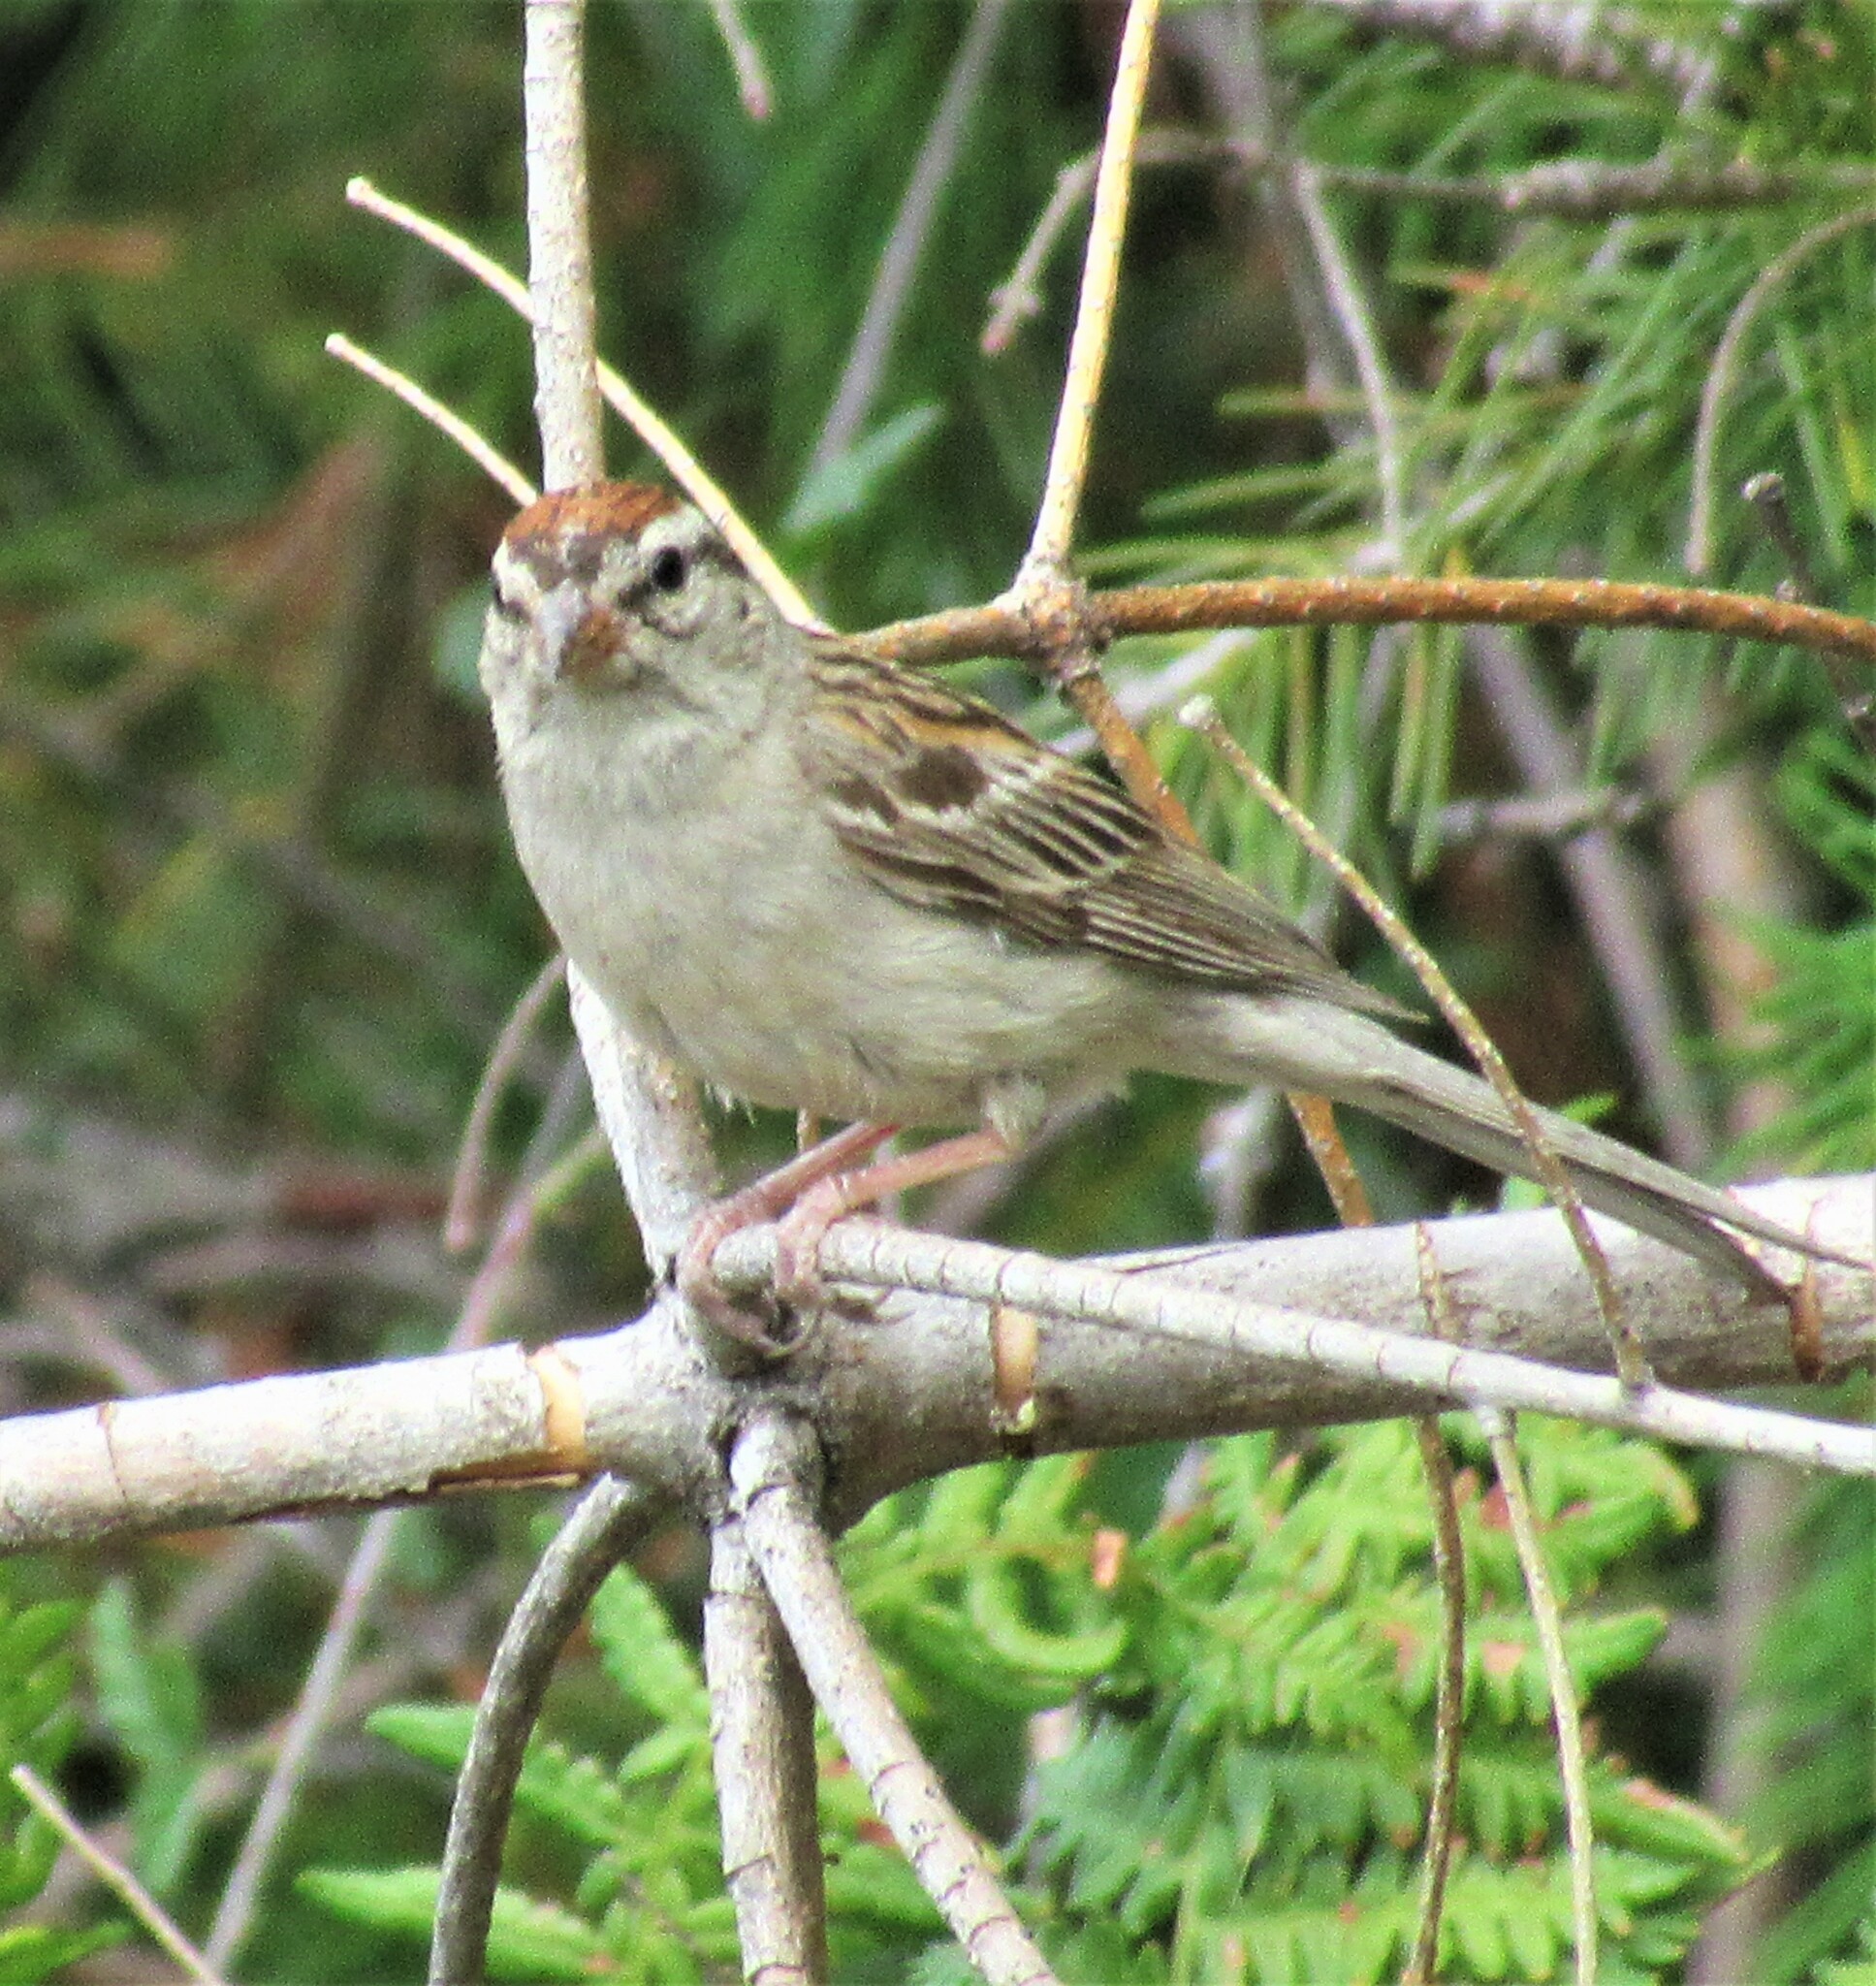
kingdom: Animalia
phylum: Chordata
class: Aves
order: Passeriformes
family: Passerellidae
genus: Spizella
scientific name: Spizella passerina
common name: Chipping sparrow
